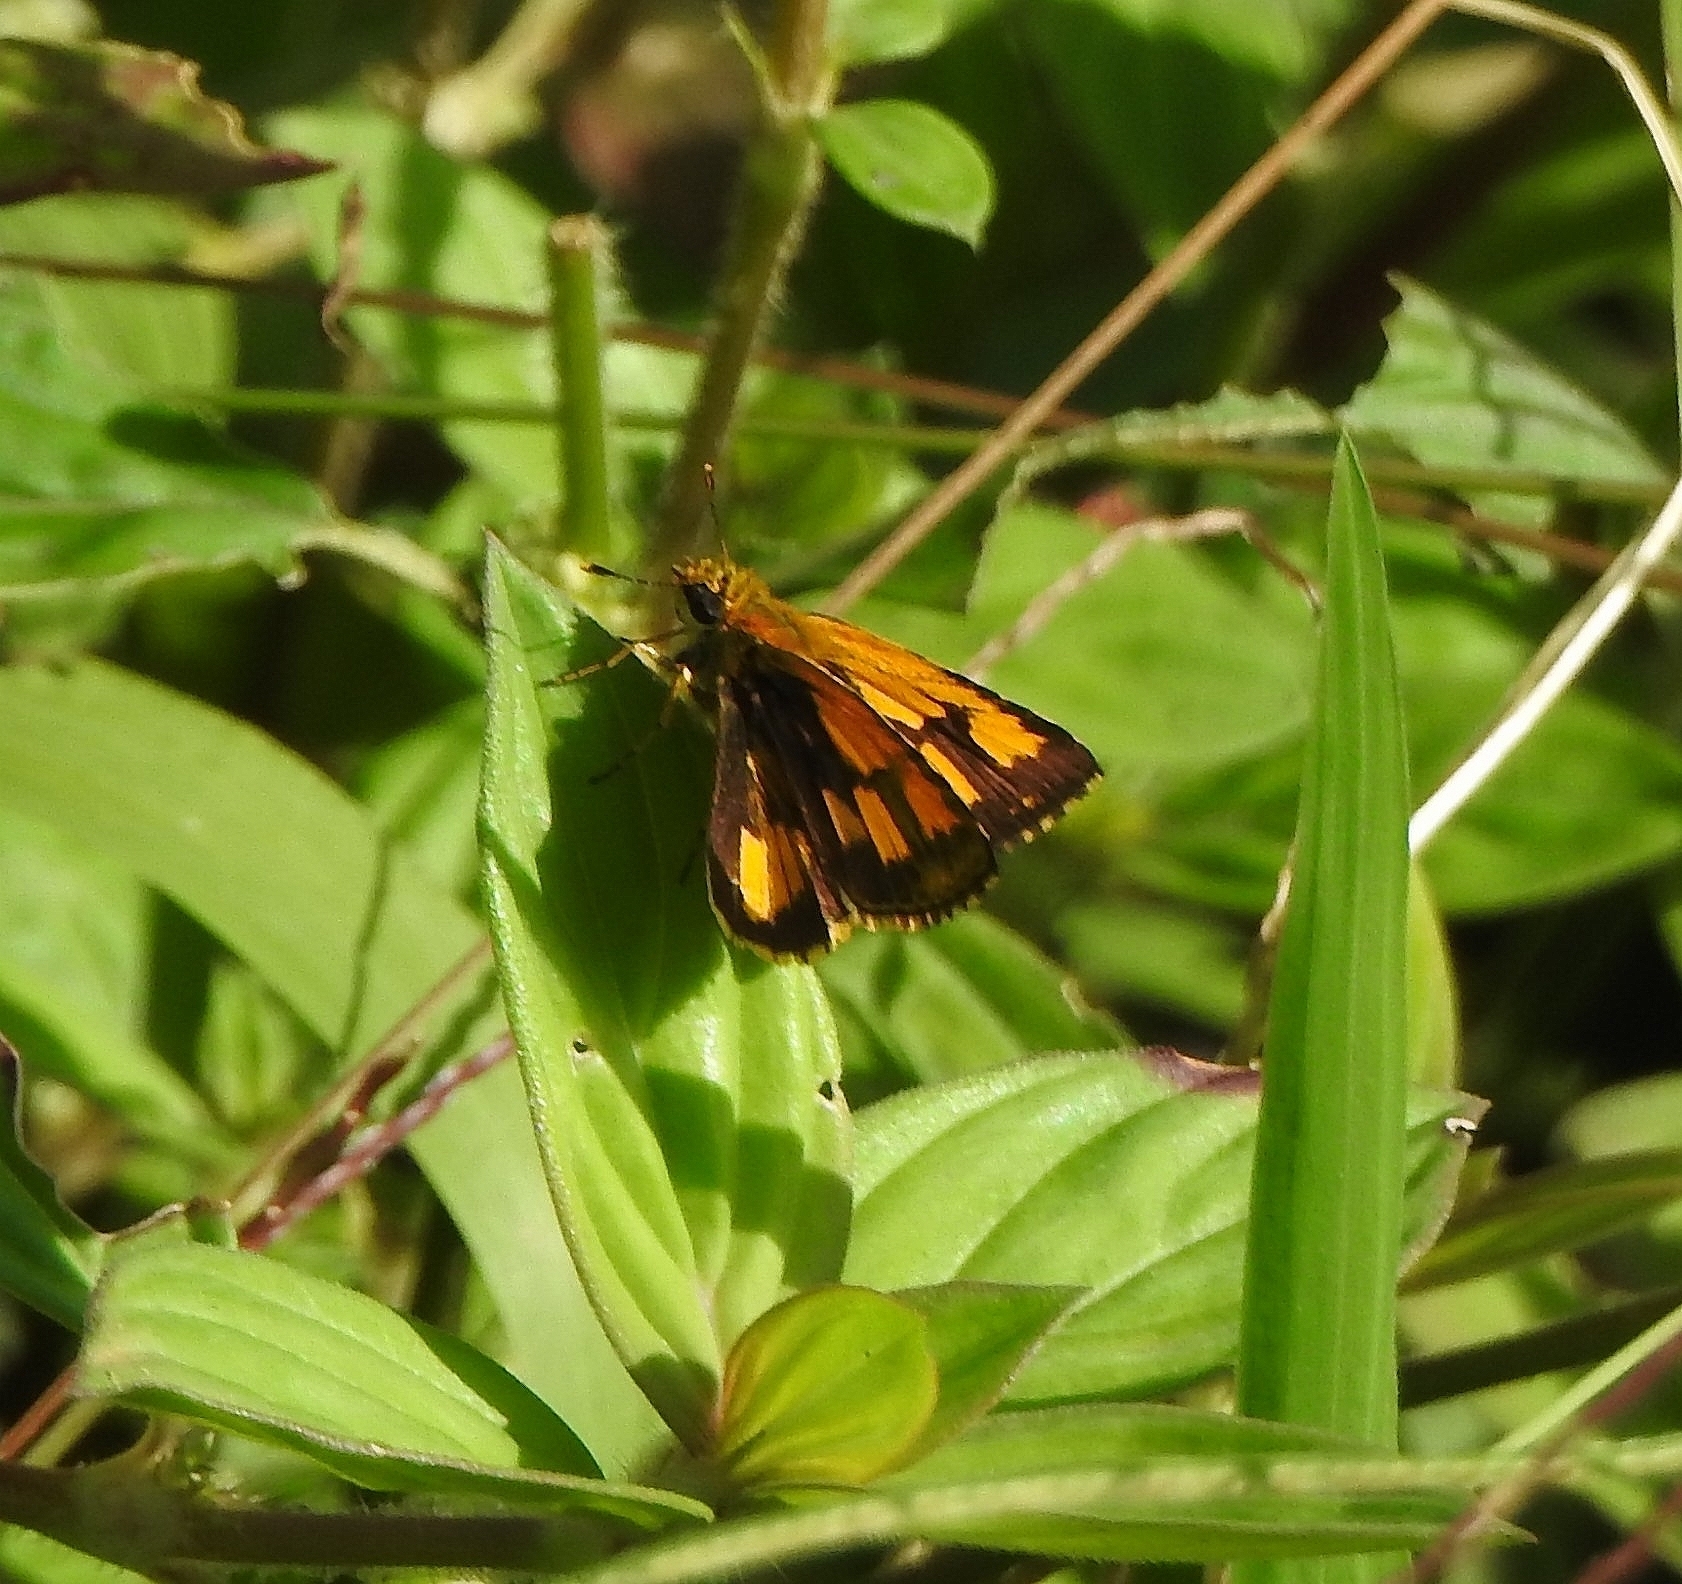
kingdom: Animalia
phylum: Arthropoda
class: Insecta
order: Lepidoptera
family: Hesperiidae
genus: Ampittia
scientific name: Ampittia dioscorides
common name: Common bush hopper
